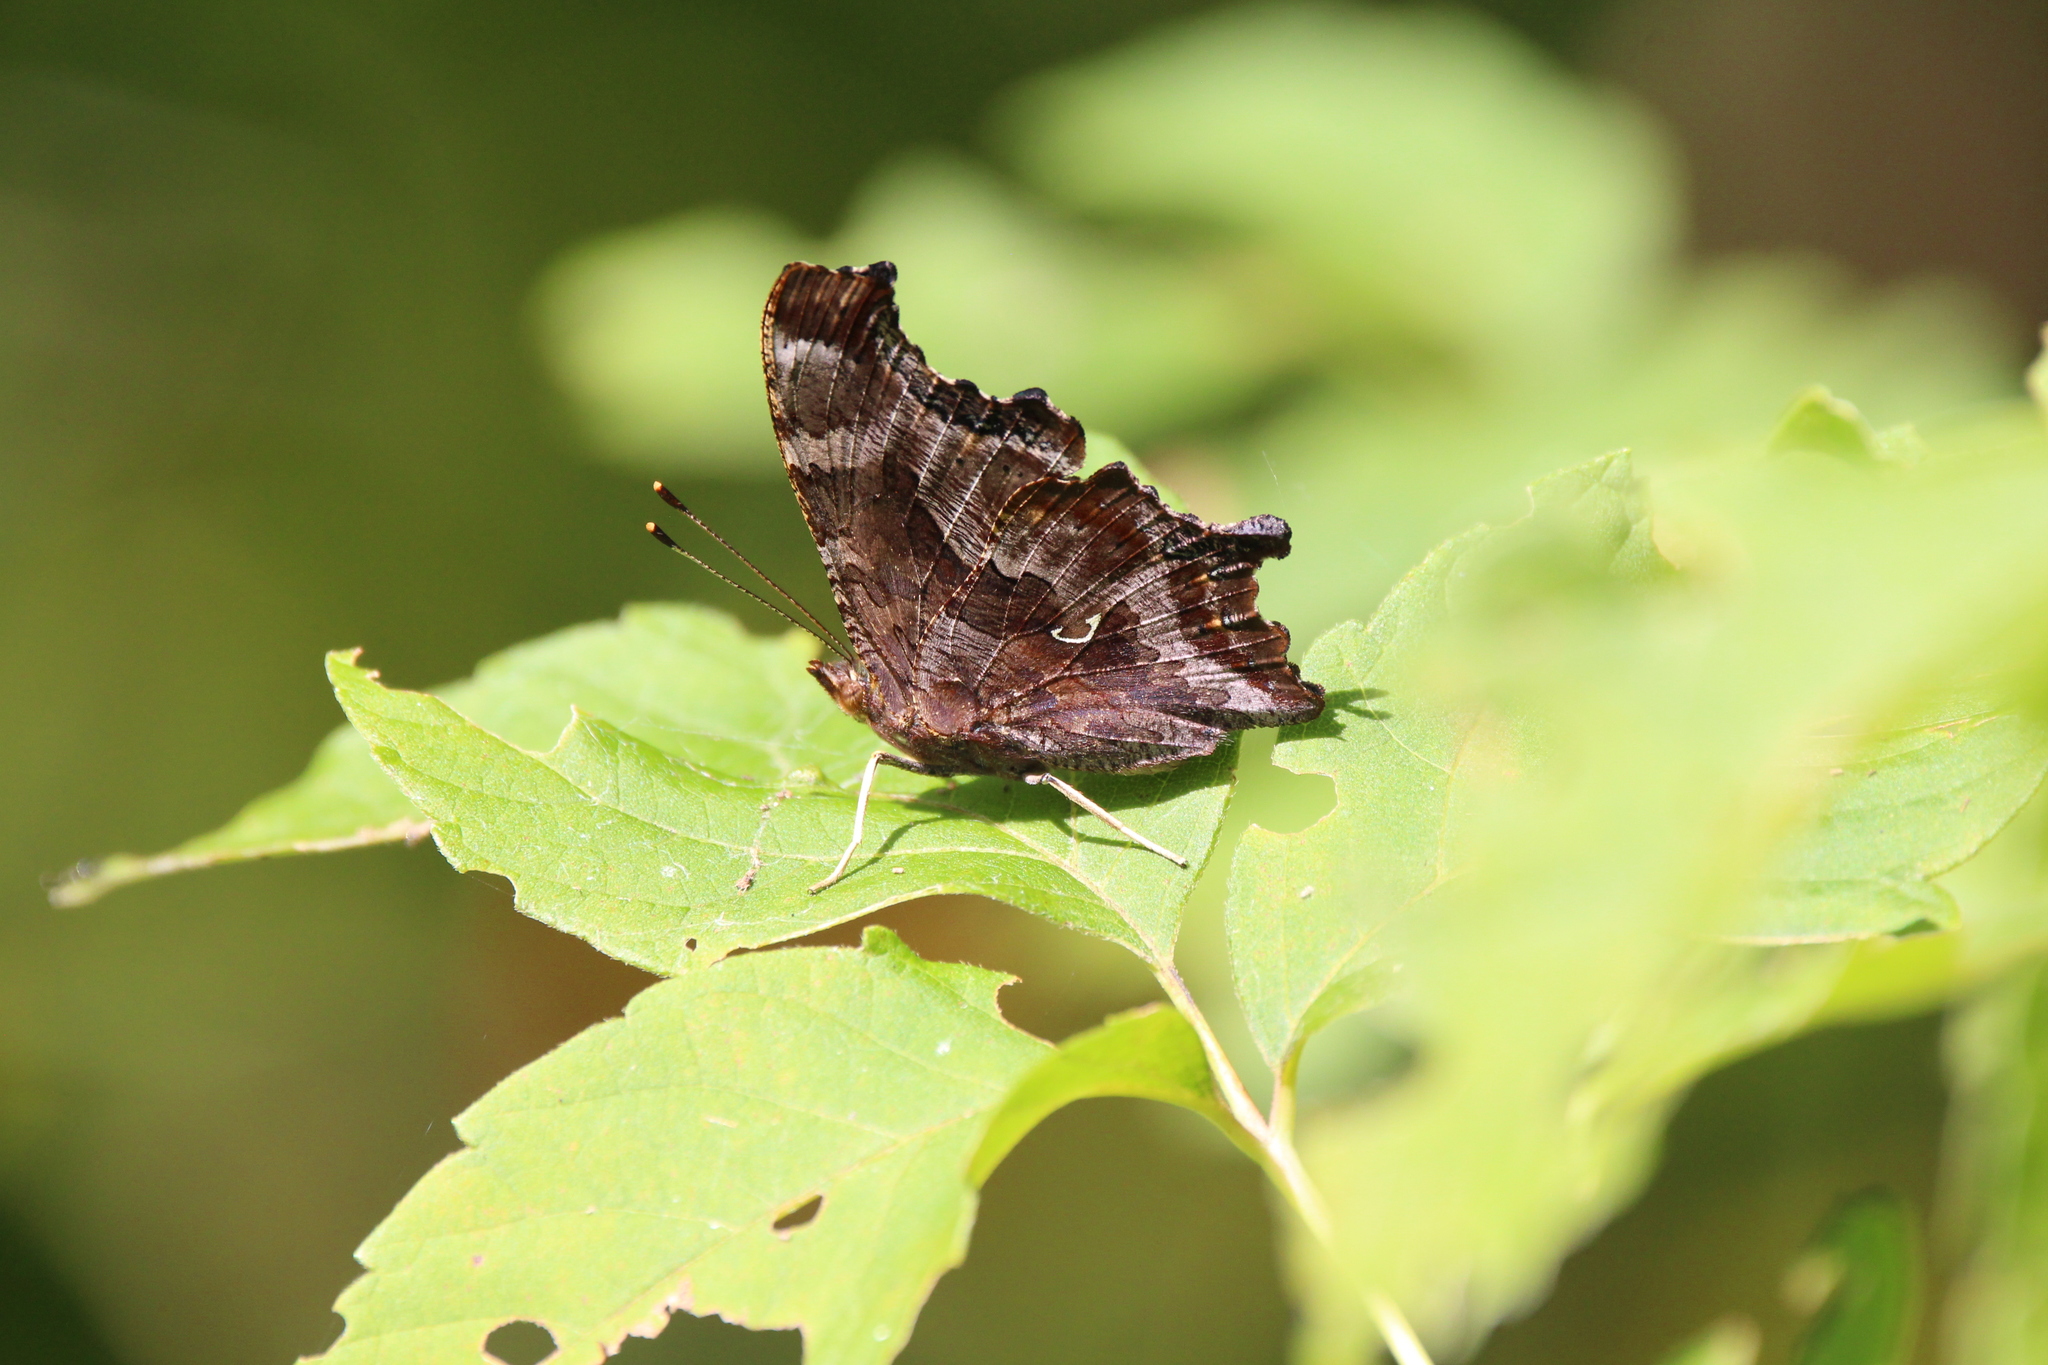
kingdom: Animalia
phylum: Arthropoda
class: Insecta
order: Lepidoptera
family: Nymphalidae
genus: Polygonia
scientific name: Polygonia comma
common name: Eastern comma
